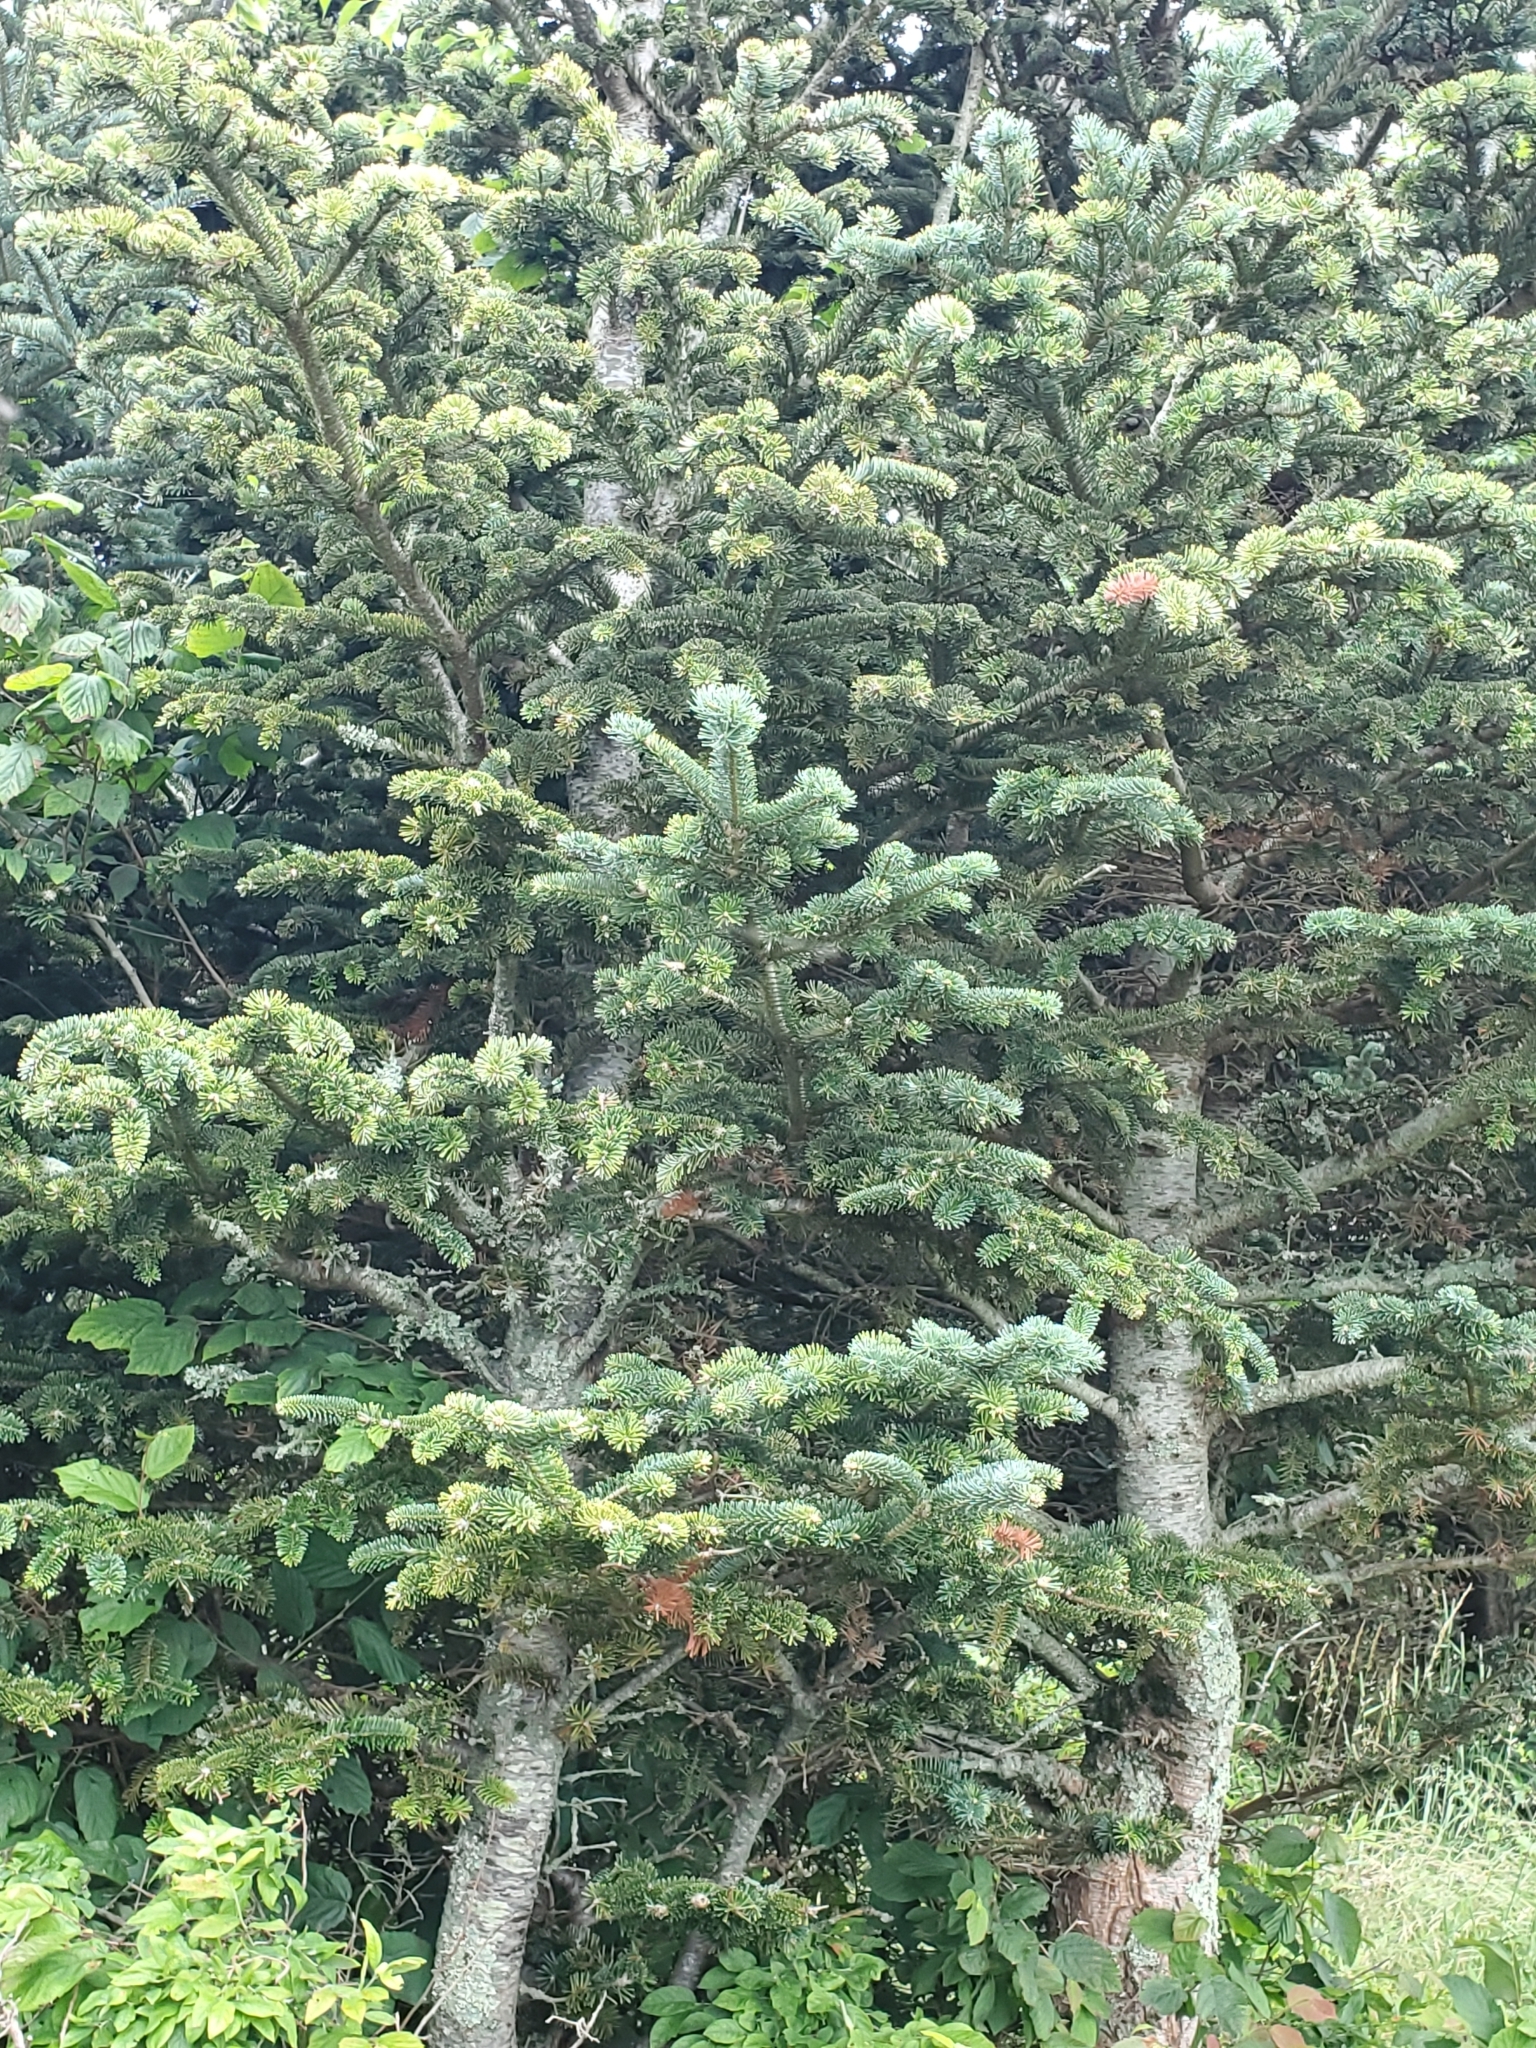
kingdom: Plantae
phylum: Tracheophyta
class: Pinopsida
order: Pinales
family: Pinaceae
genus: Abies
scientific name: Abies balsamea
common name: Balsam fir
